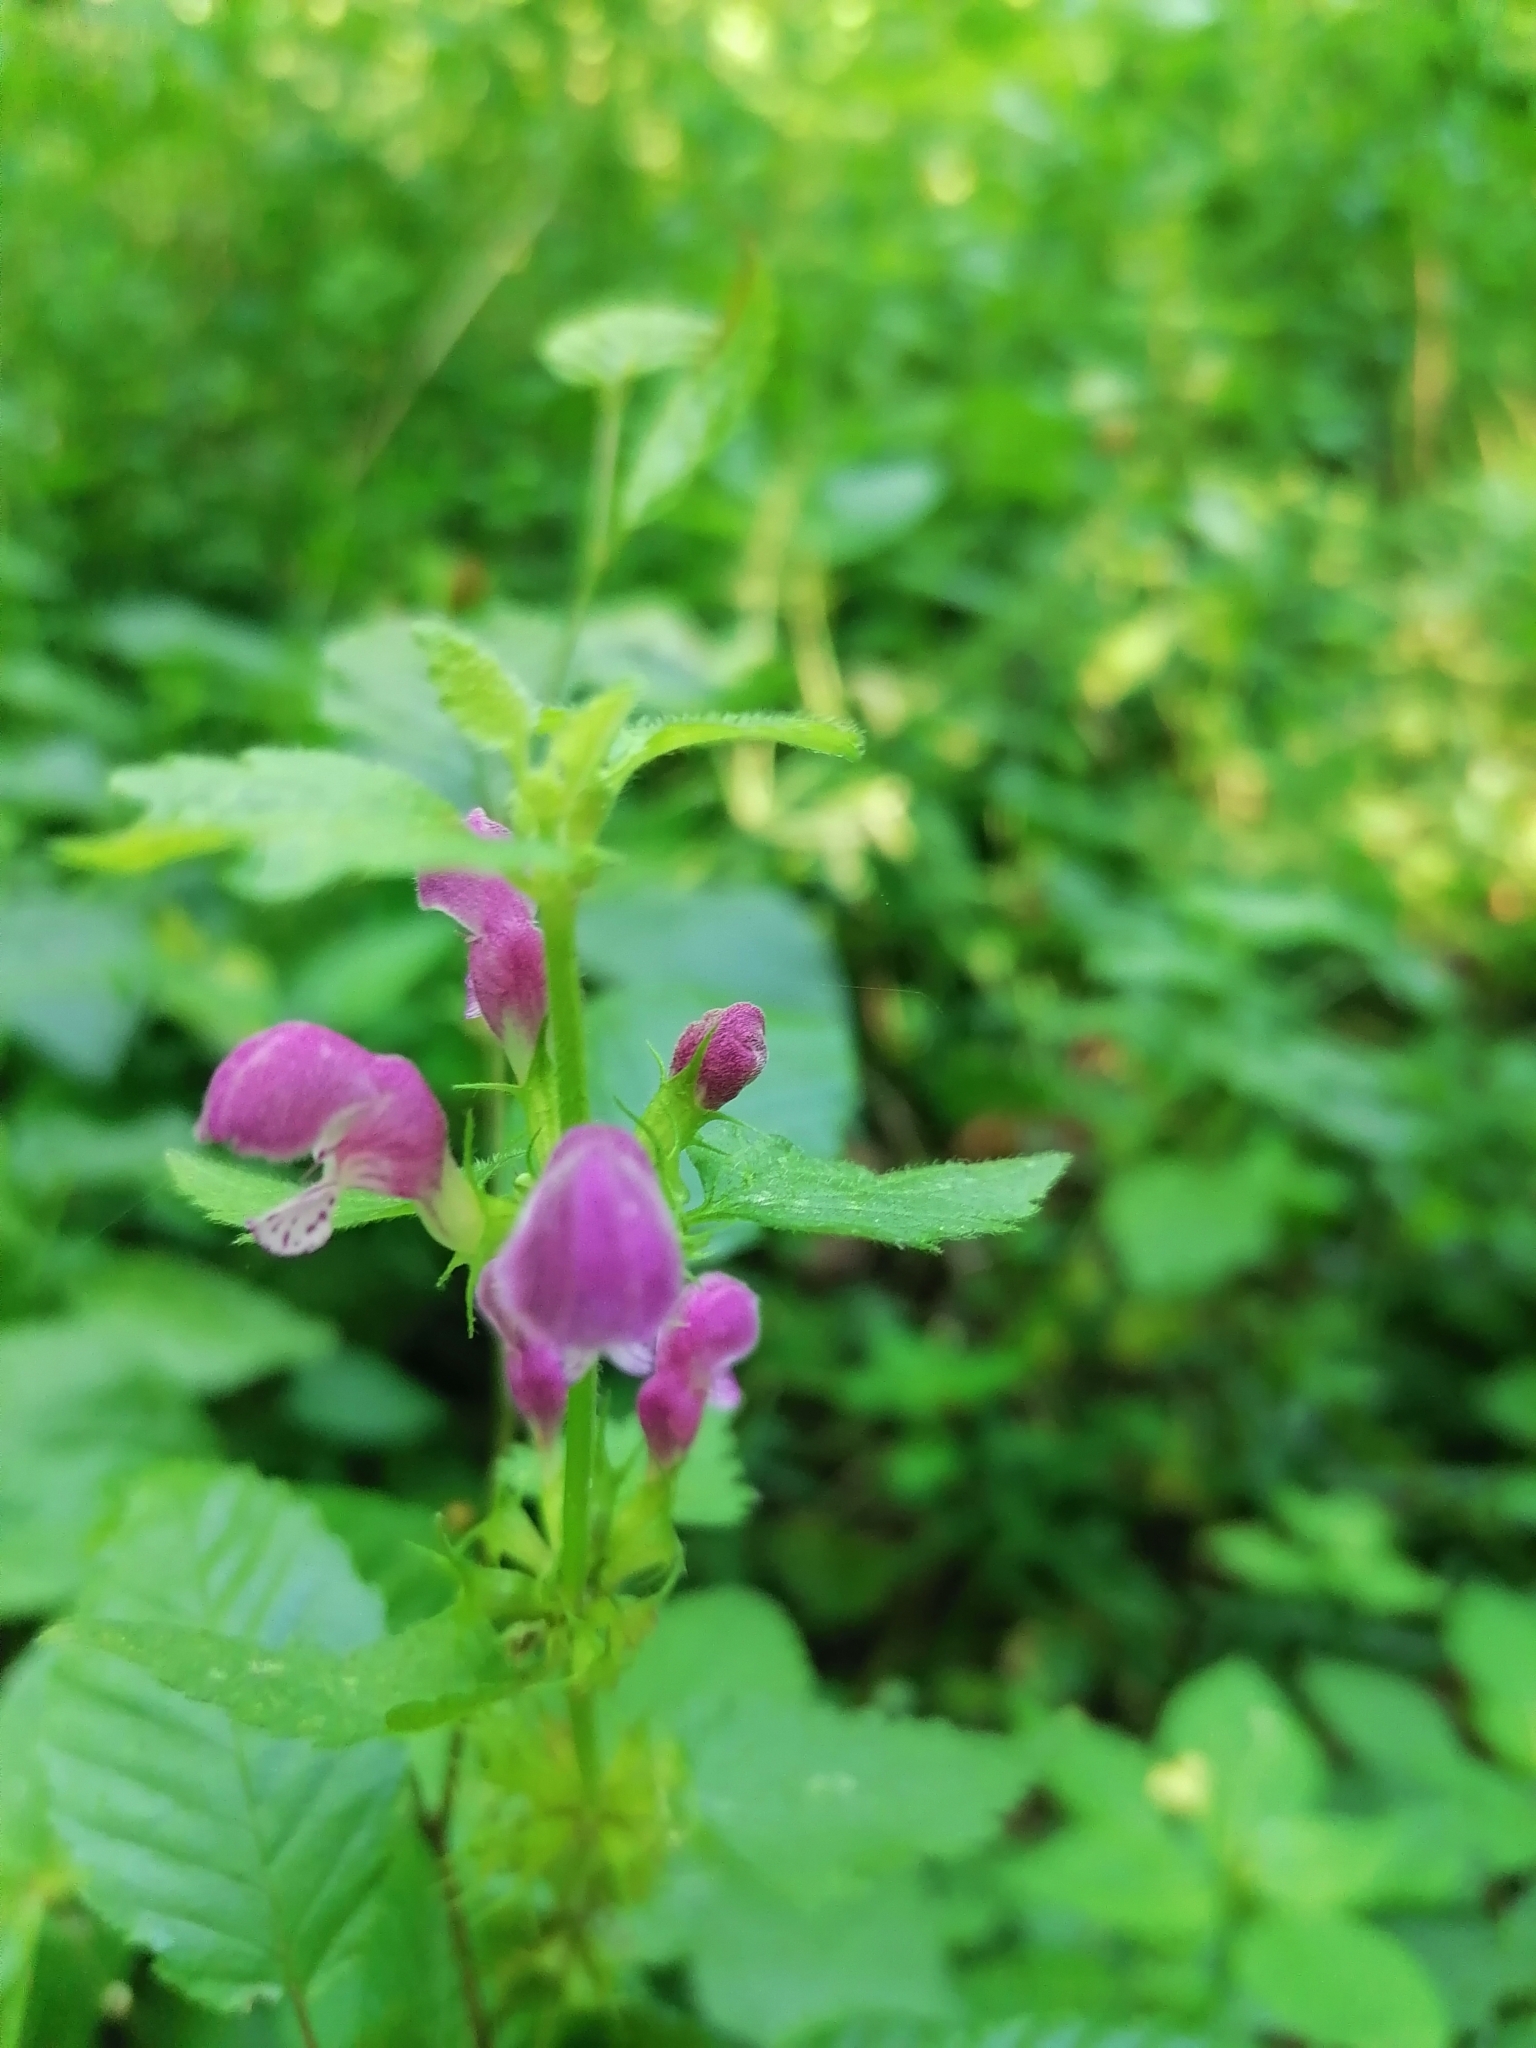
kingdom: Plantae
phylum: Tracheophyta
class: Magnoliopsida
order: Lamiales
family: Lamiaceae
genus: Lamium
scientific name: Lamium maculatum
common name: Spotted dead-nettle
